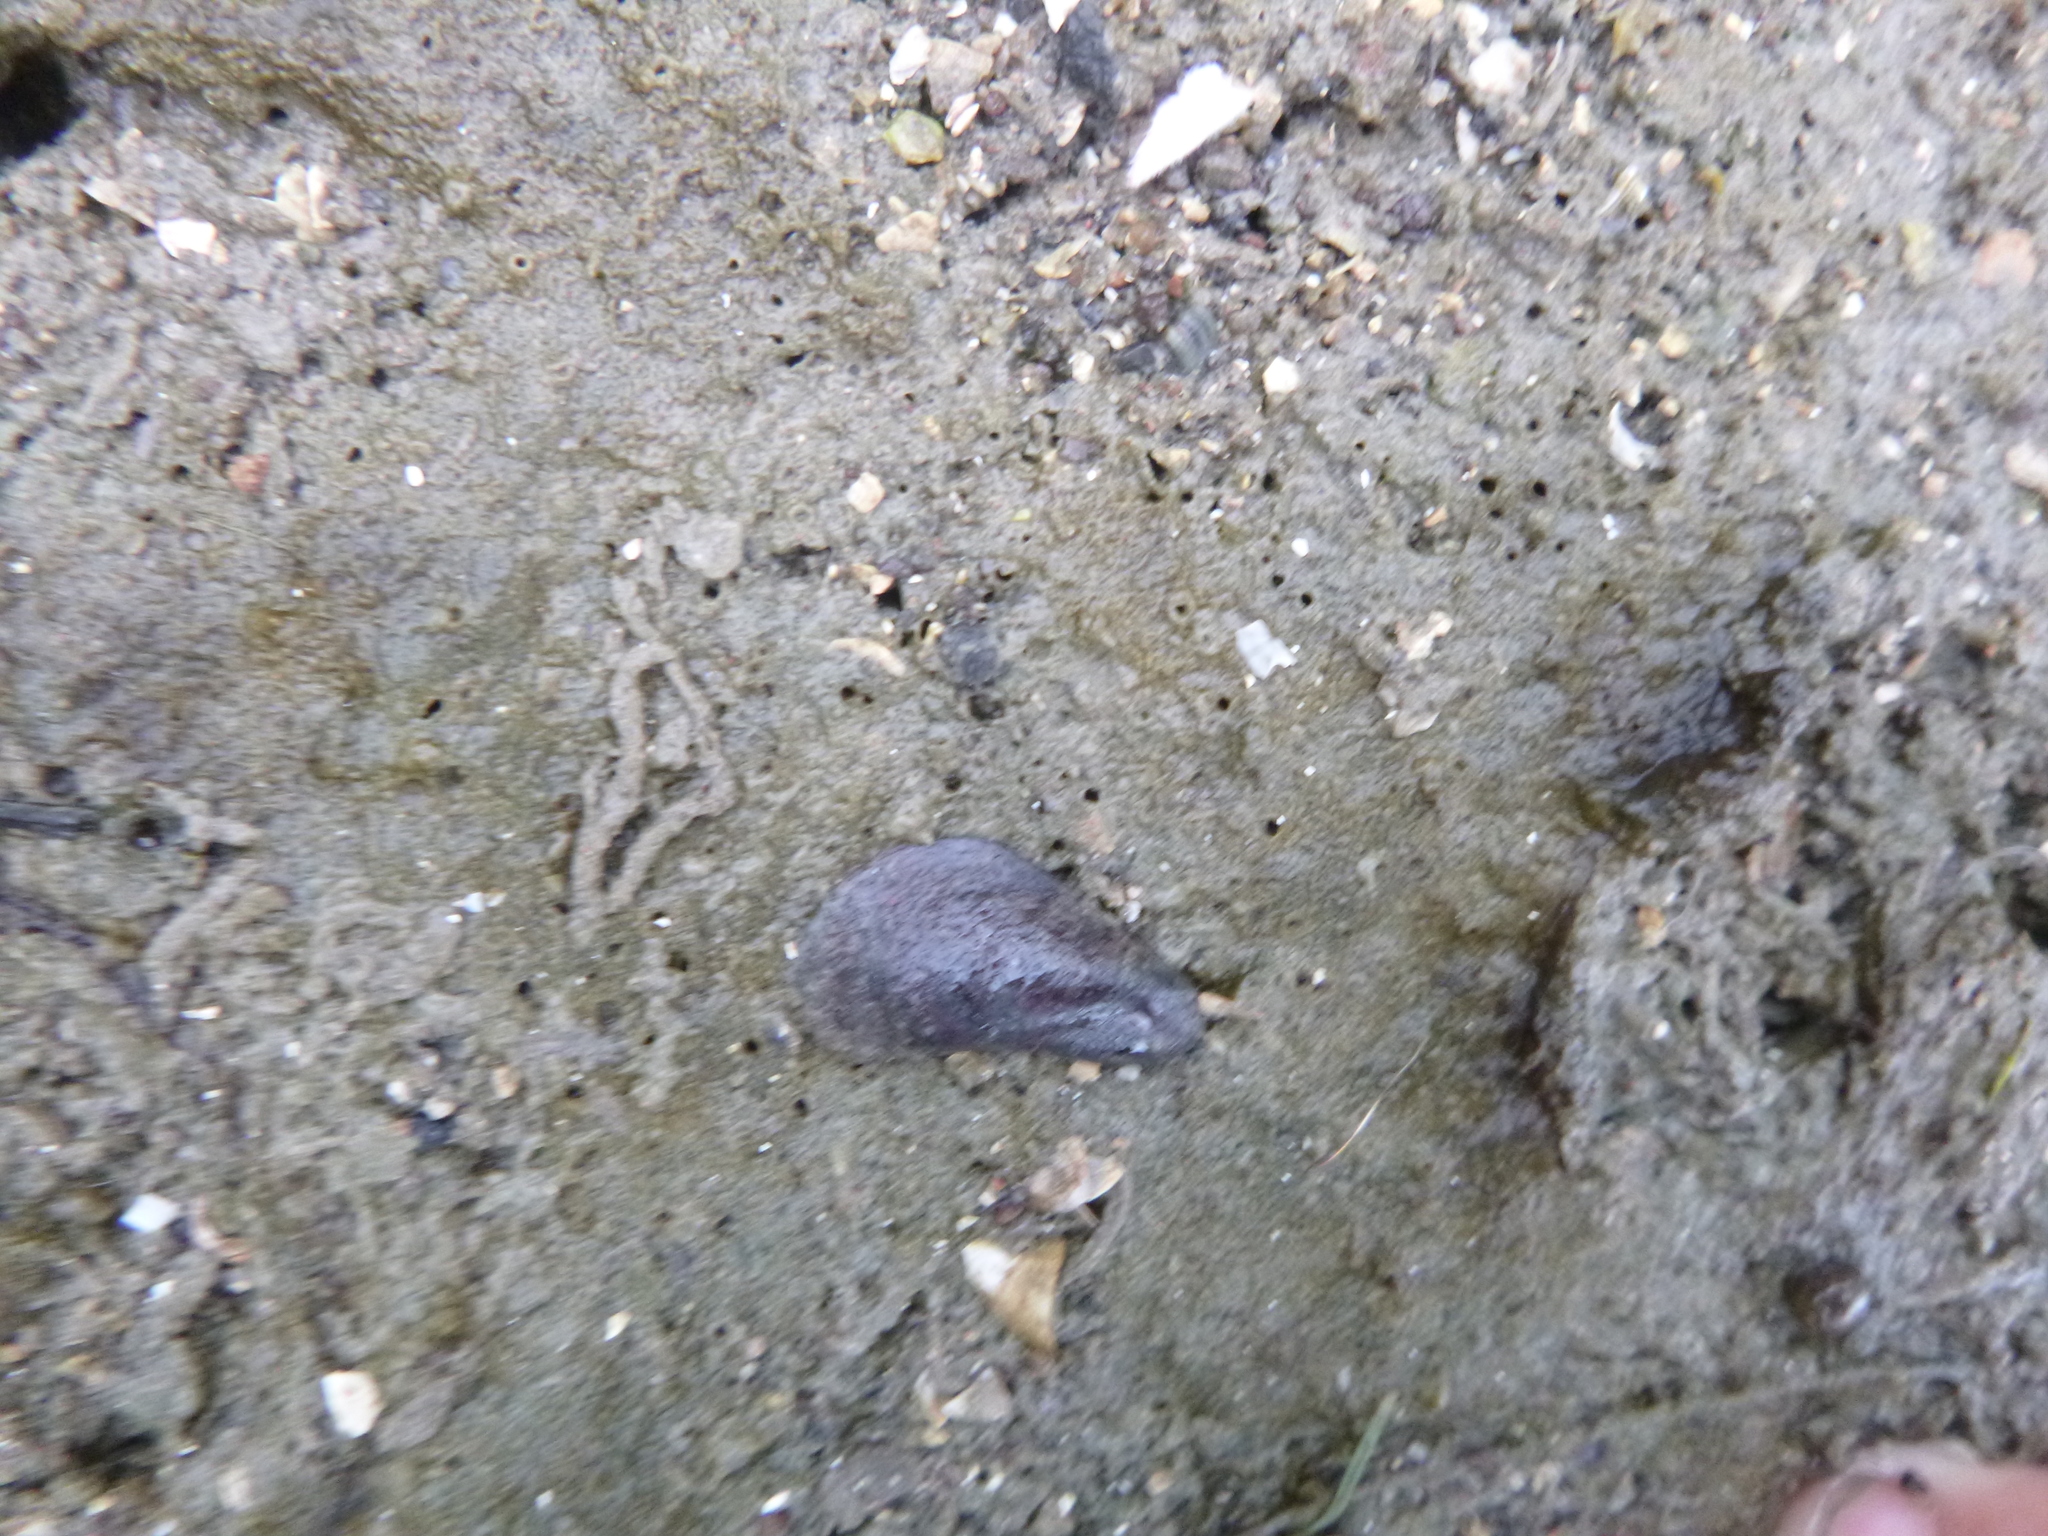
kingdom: Animalia
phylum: Mollusca
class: Bivalvia
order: Mytilida
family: Mytilidae
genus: Xenostrobus
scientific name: Xenostrobus securis
